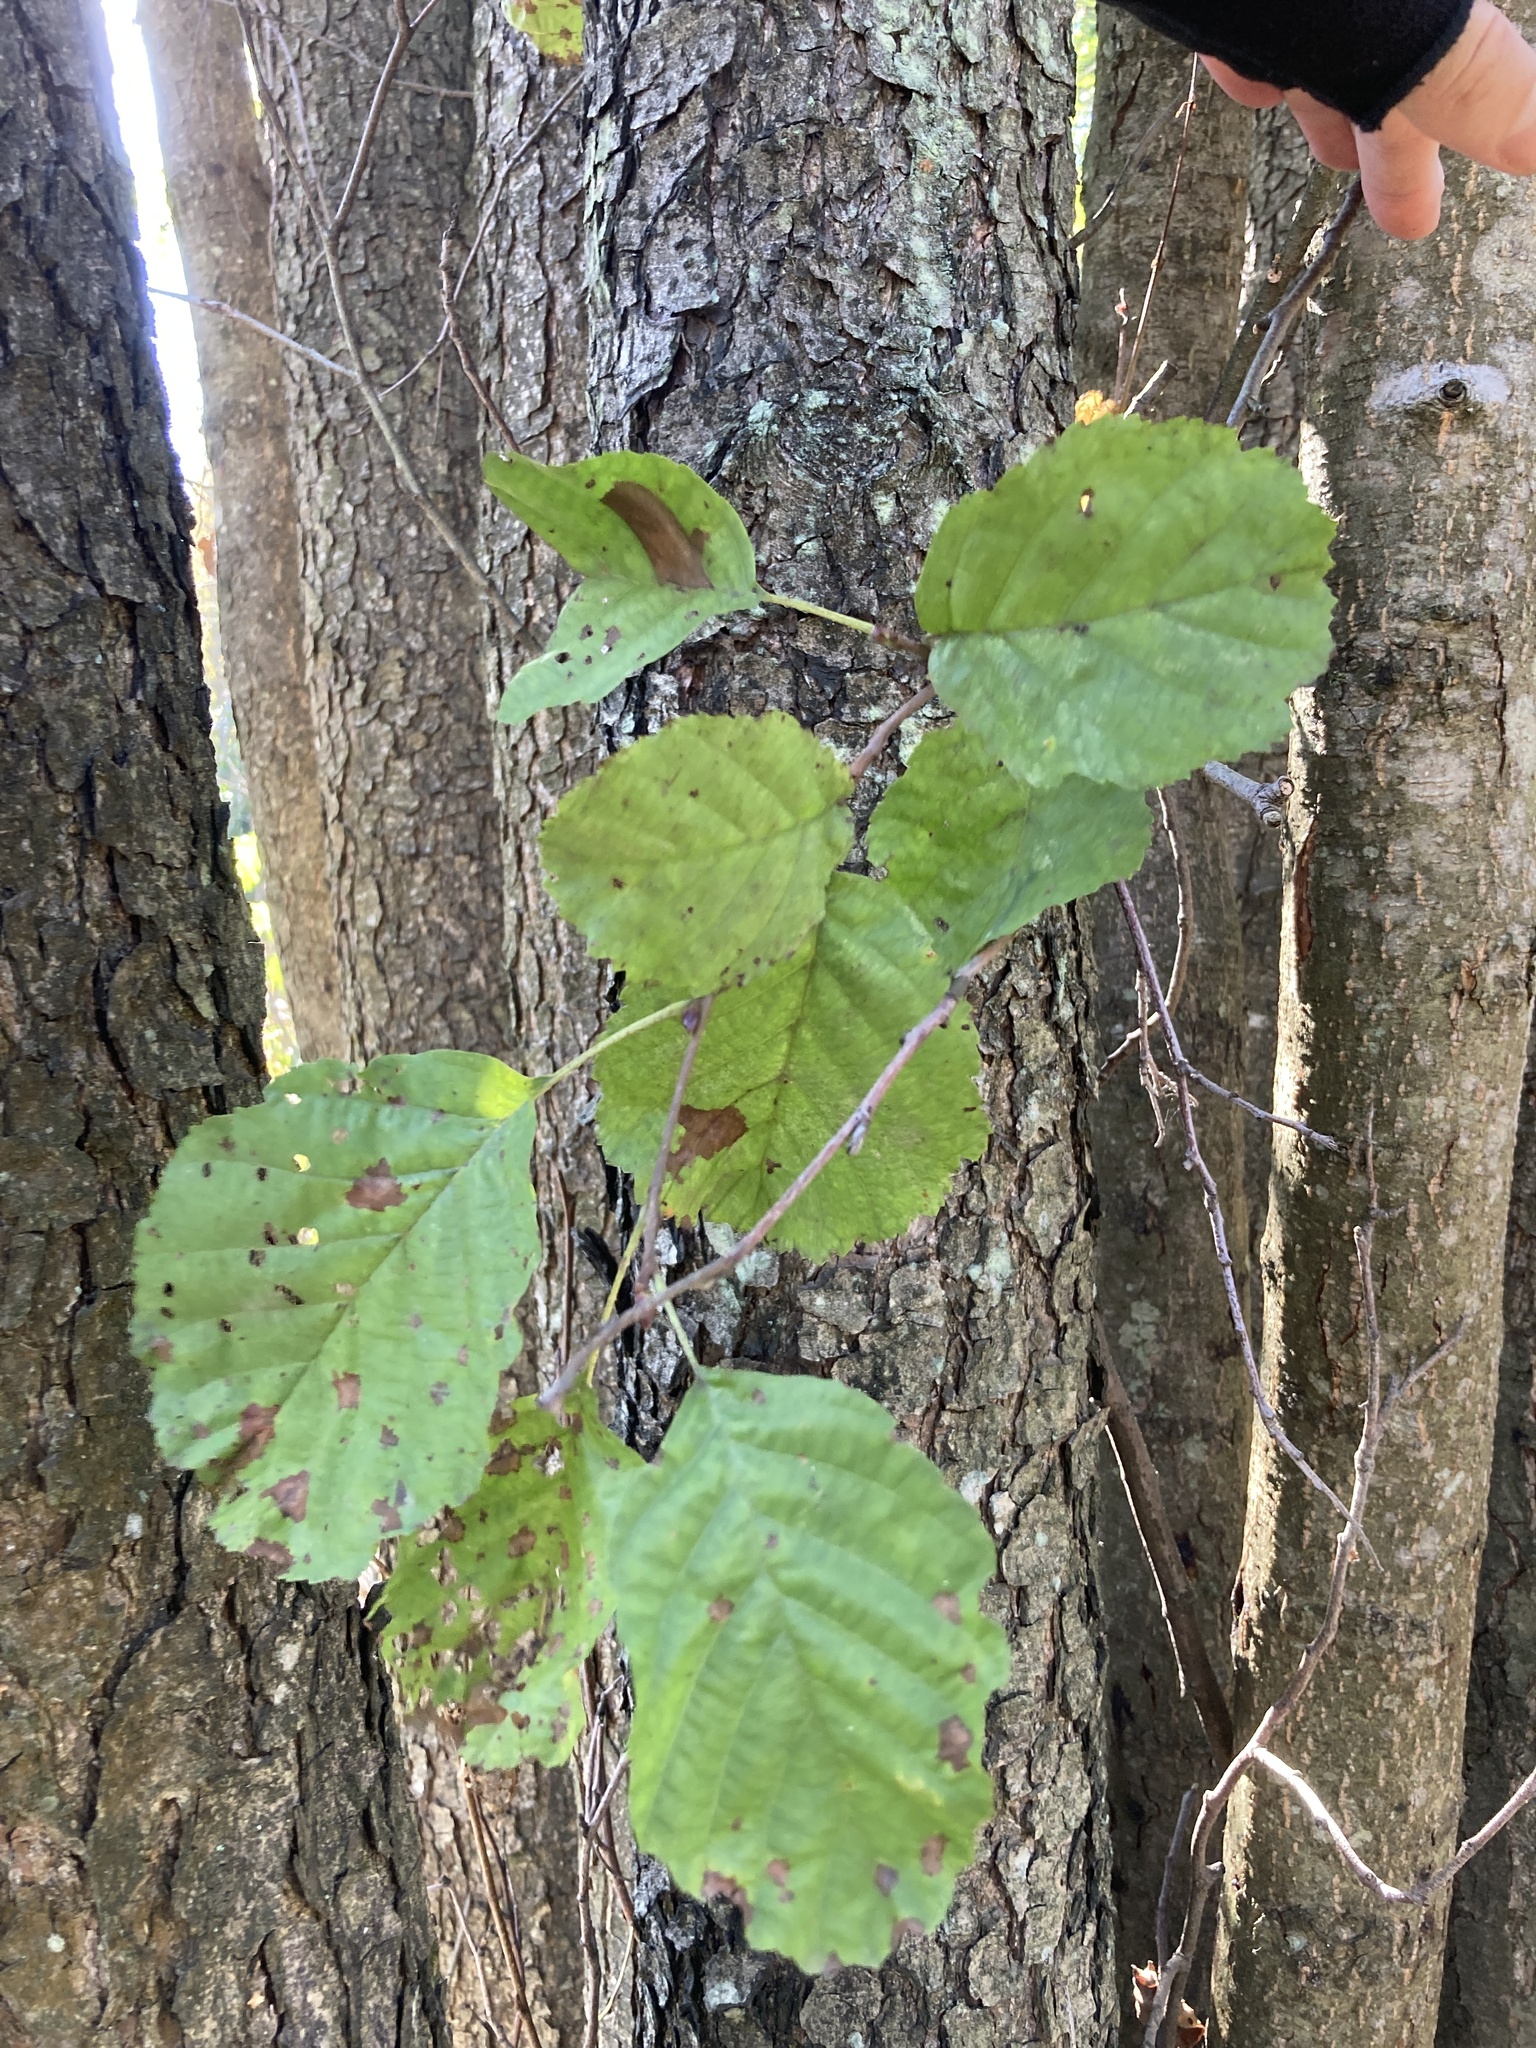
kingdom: Plantae
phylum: Tracheophyta
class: Magnoliopsida
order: Fagales
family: Betulaceae
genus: Alnus
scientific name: Alnus glutinosa
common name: Black alder
